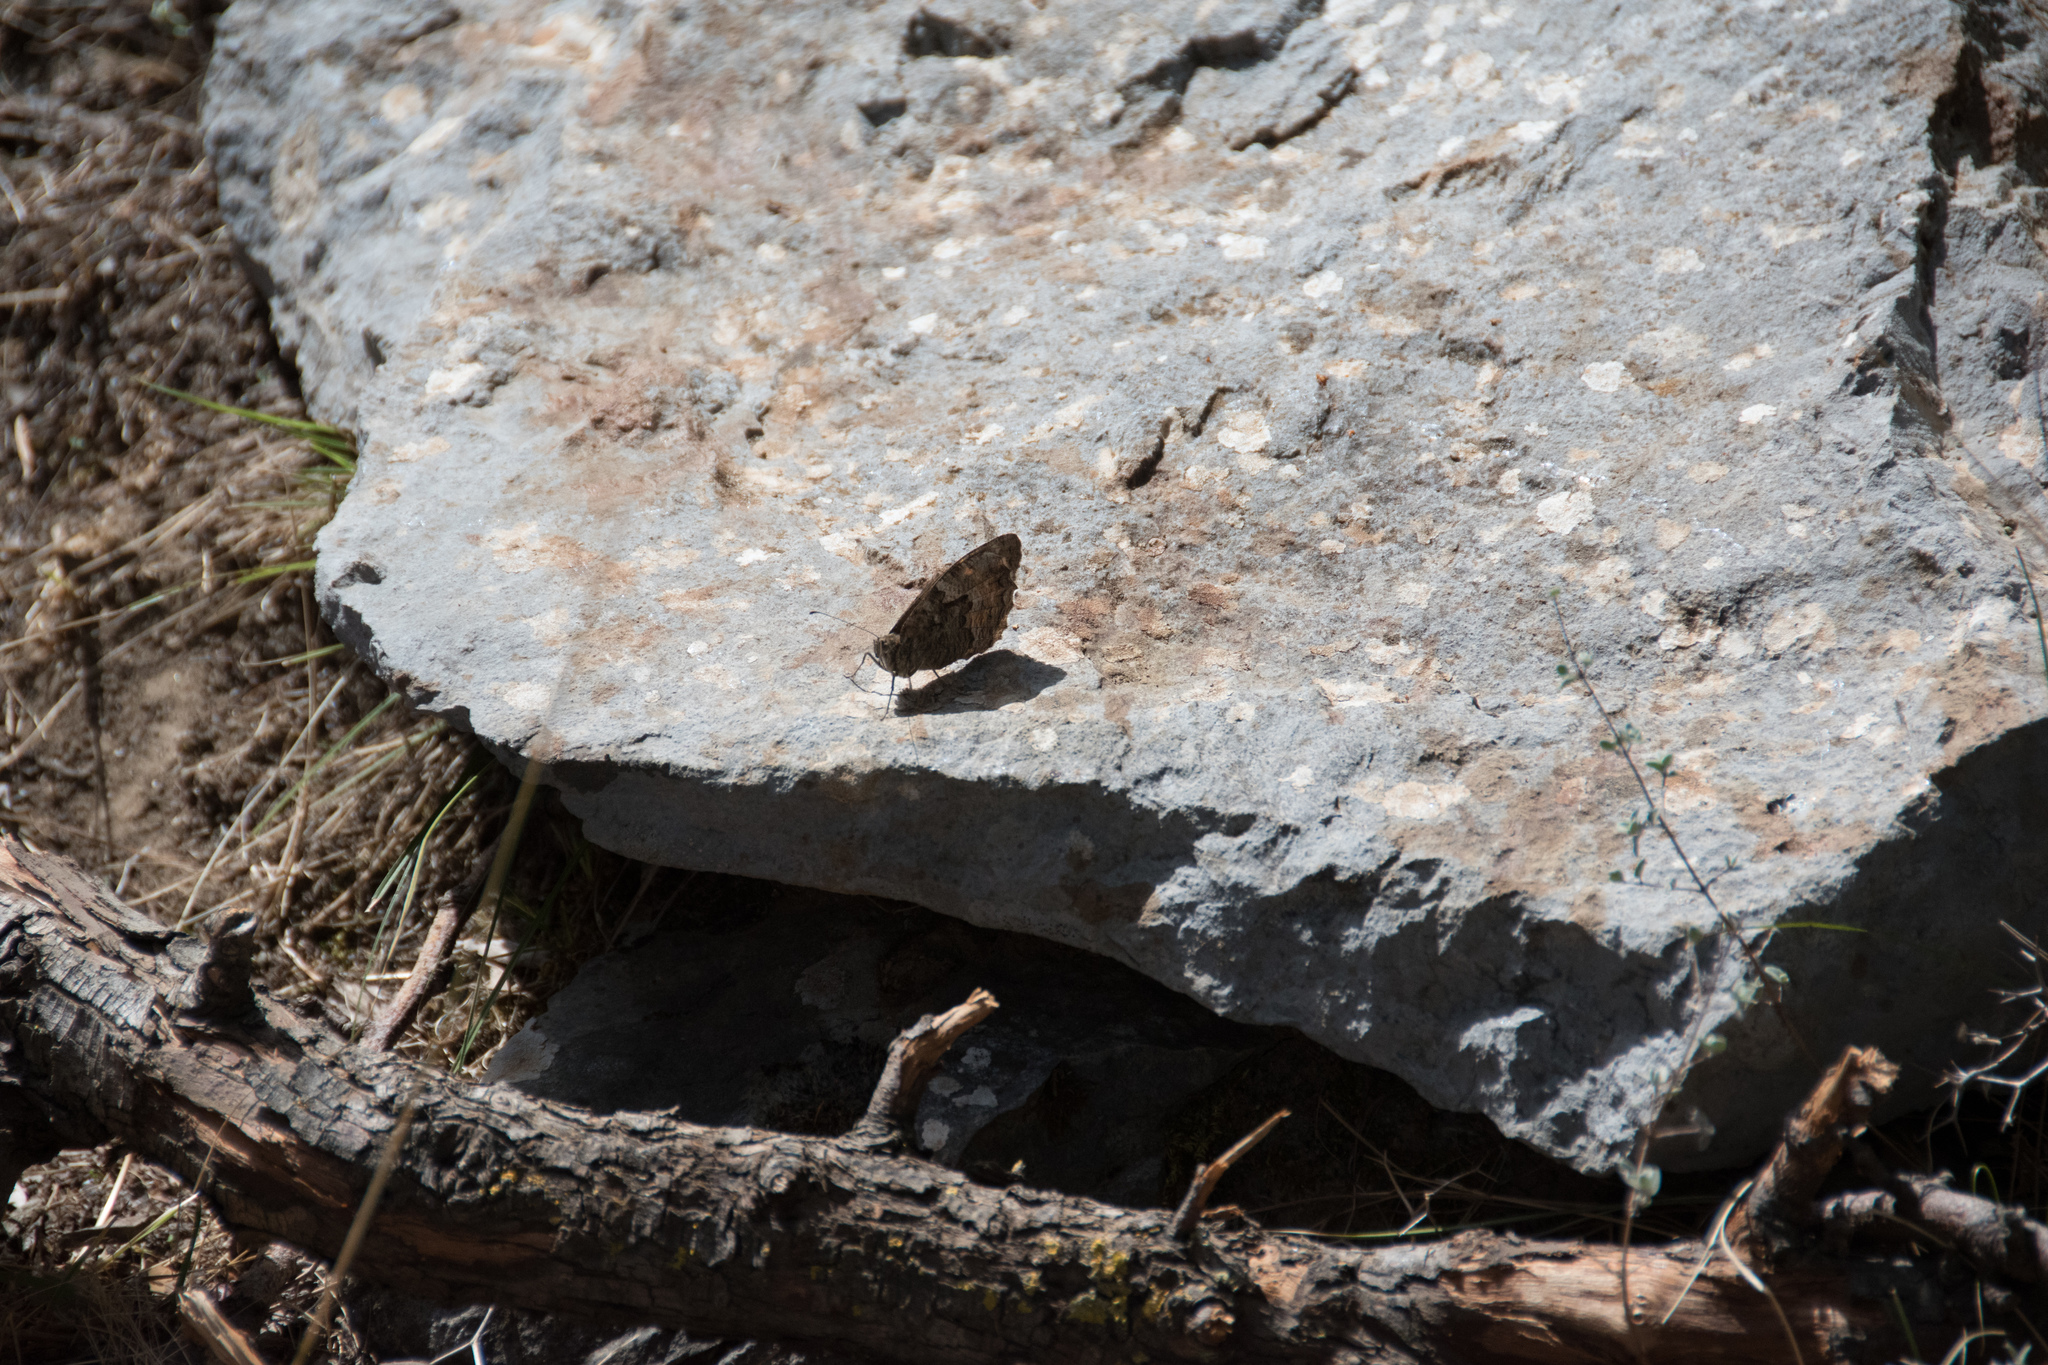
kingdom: Animalia
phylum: Arthropoda
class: Insecta
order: Lepidoptera
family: Nymphalidae
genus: Hipparchia
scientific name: Hipparchia cretica
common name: Cretan grayling
